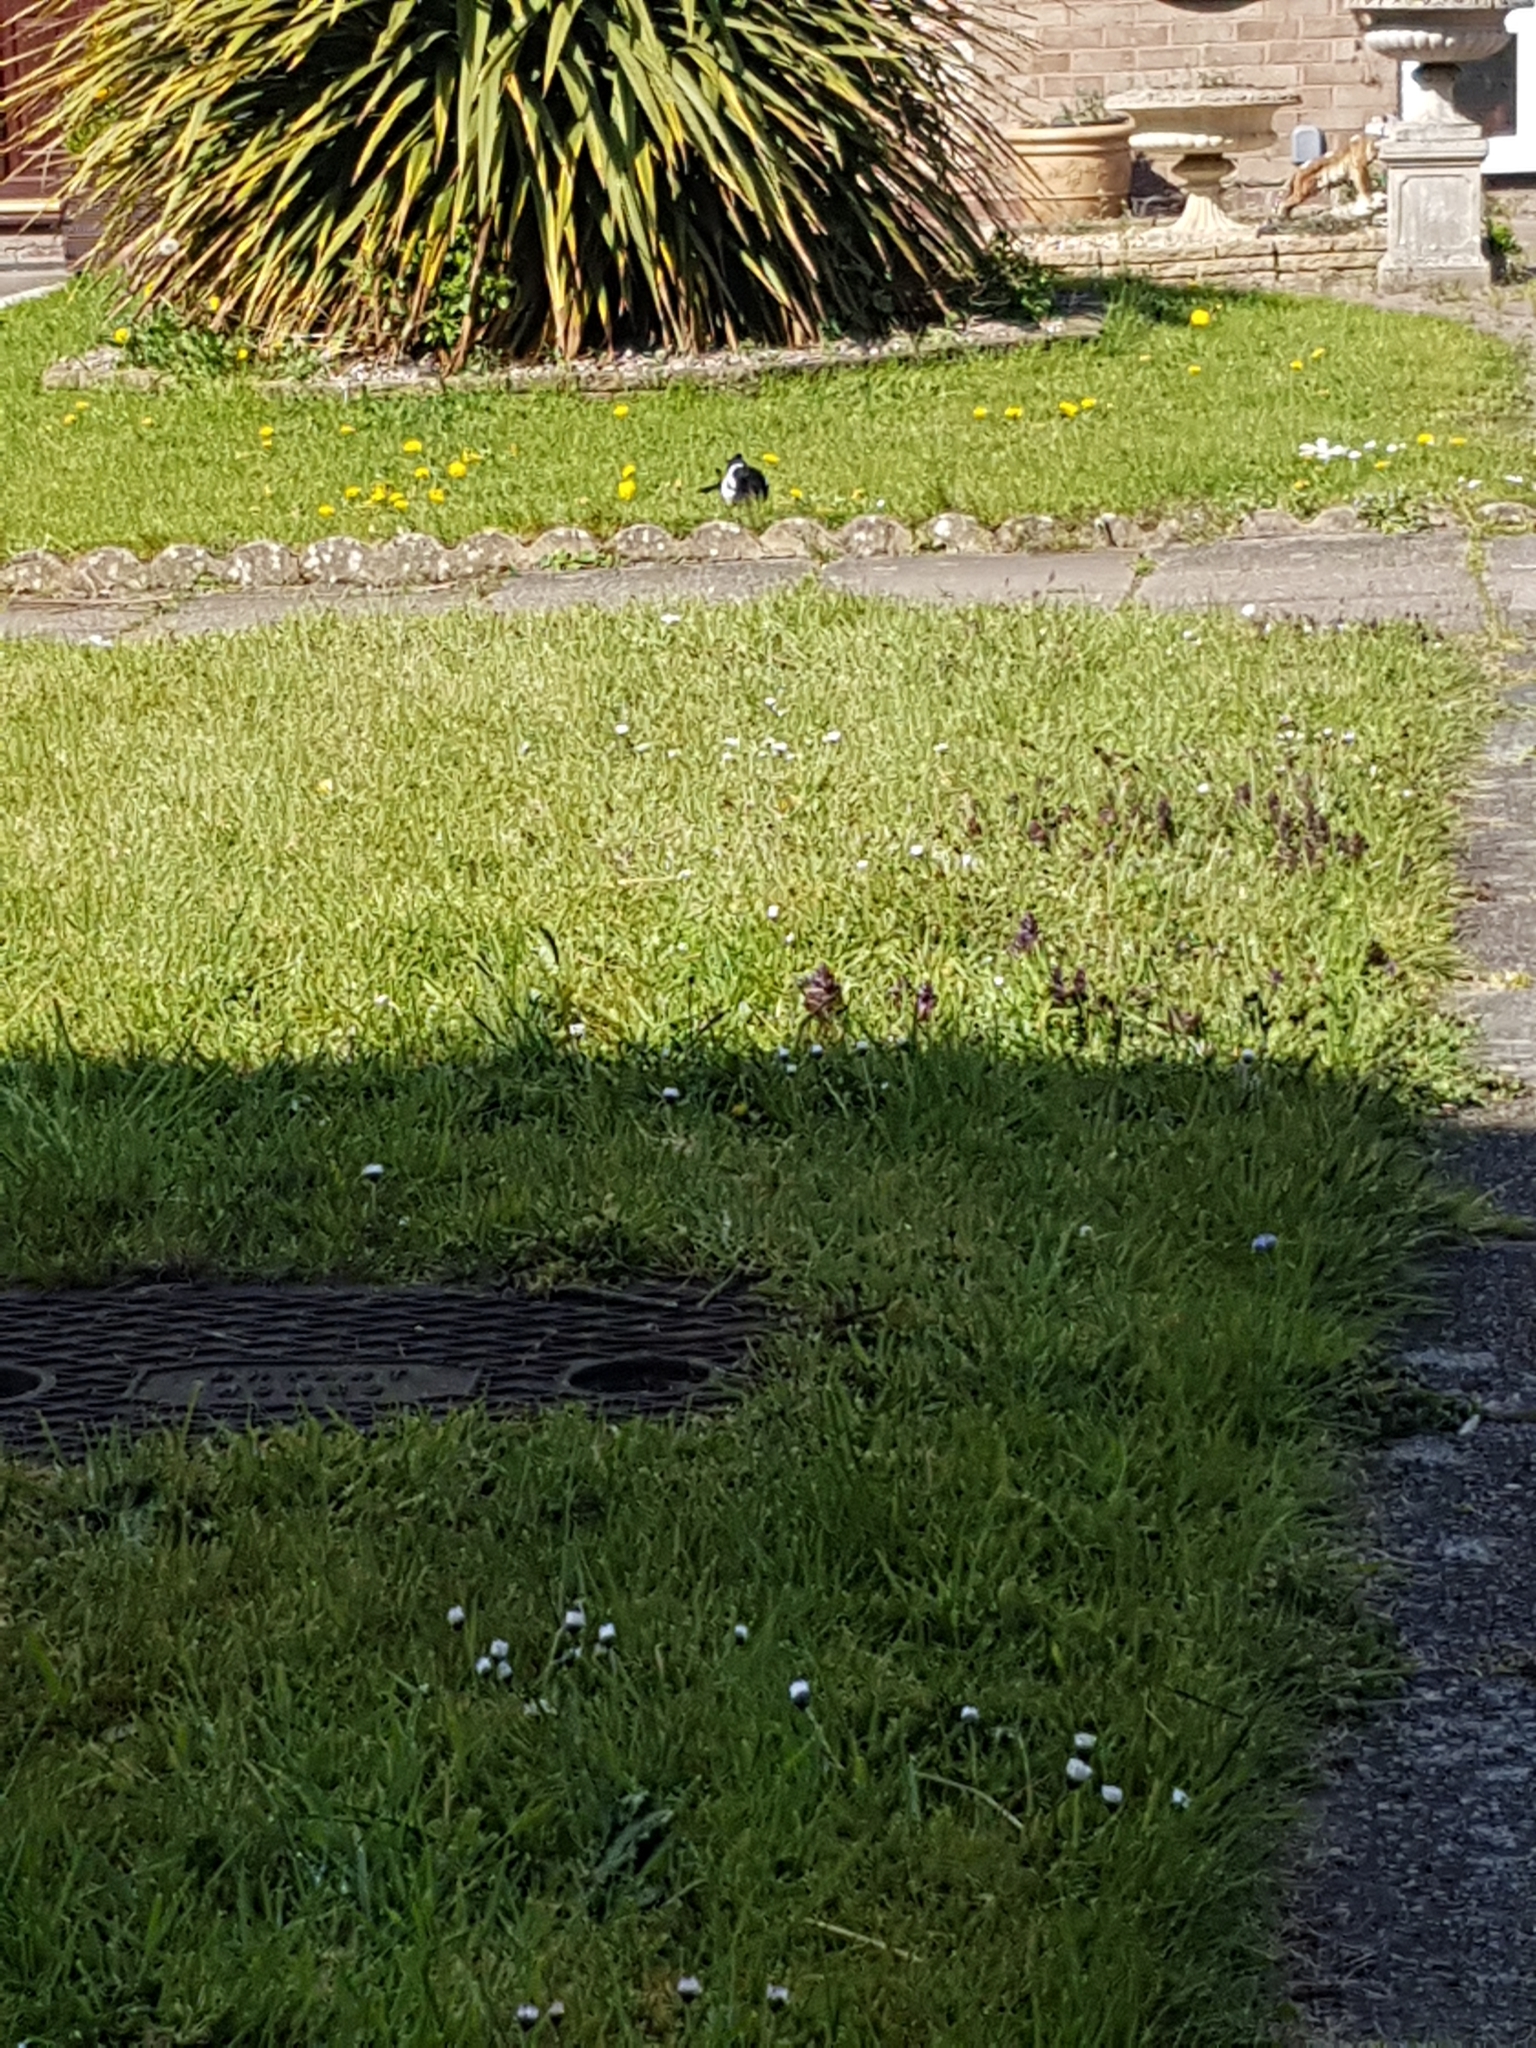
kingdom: Animalia
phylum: Chordata
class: Aves
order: Passeriformes
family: Corvidae
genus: Pica
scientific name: Pica pica
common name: Eurasian magpie
